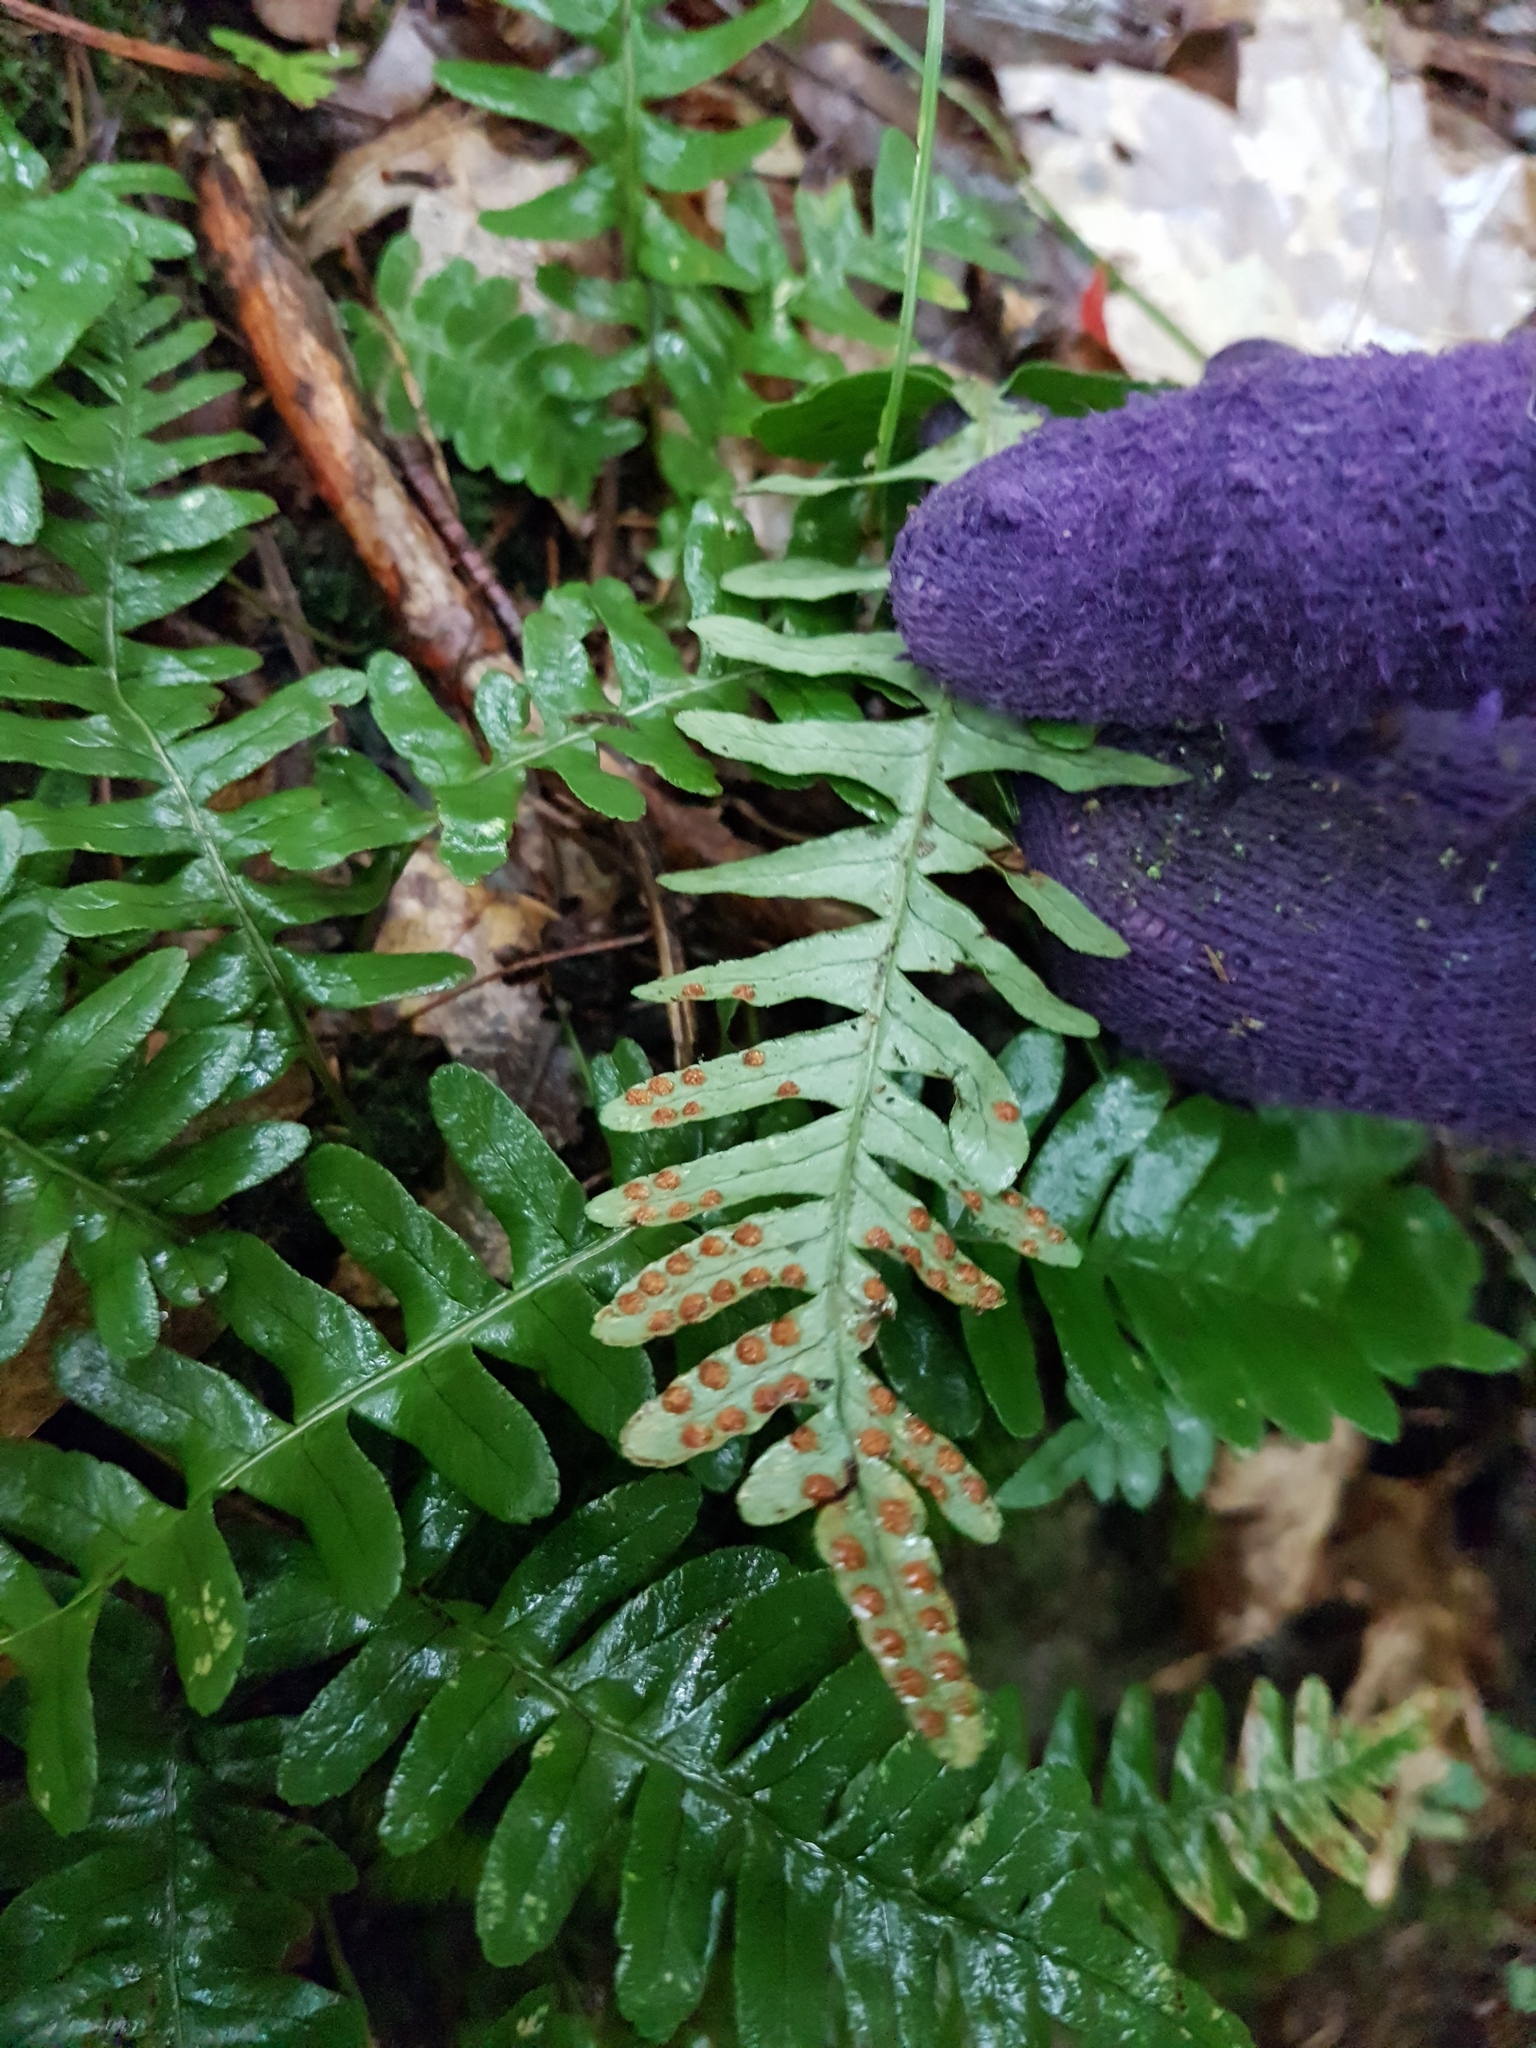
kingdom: Plantae
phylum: Tracheophyta
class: Polypodiopsida
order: Polypodiales
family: Polypodiaceae
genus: Polypodium
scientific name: Polypodium virginianum
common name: American wall fern
